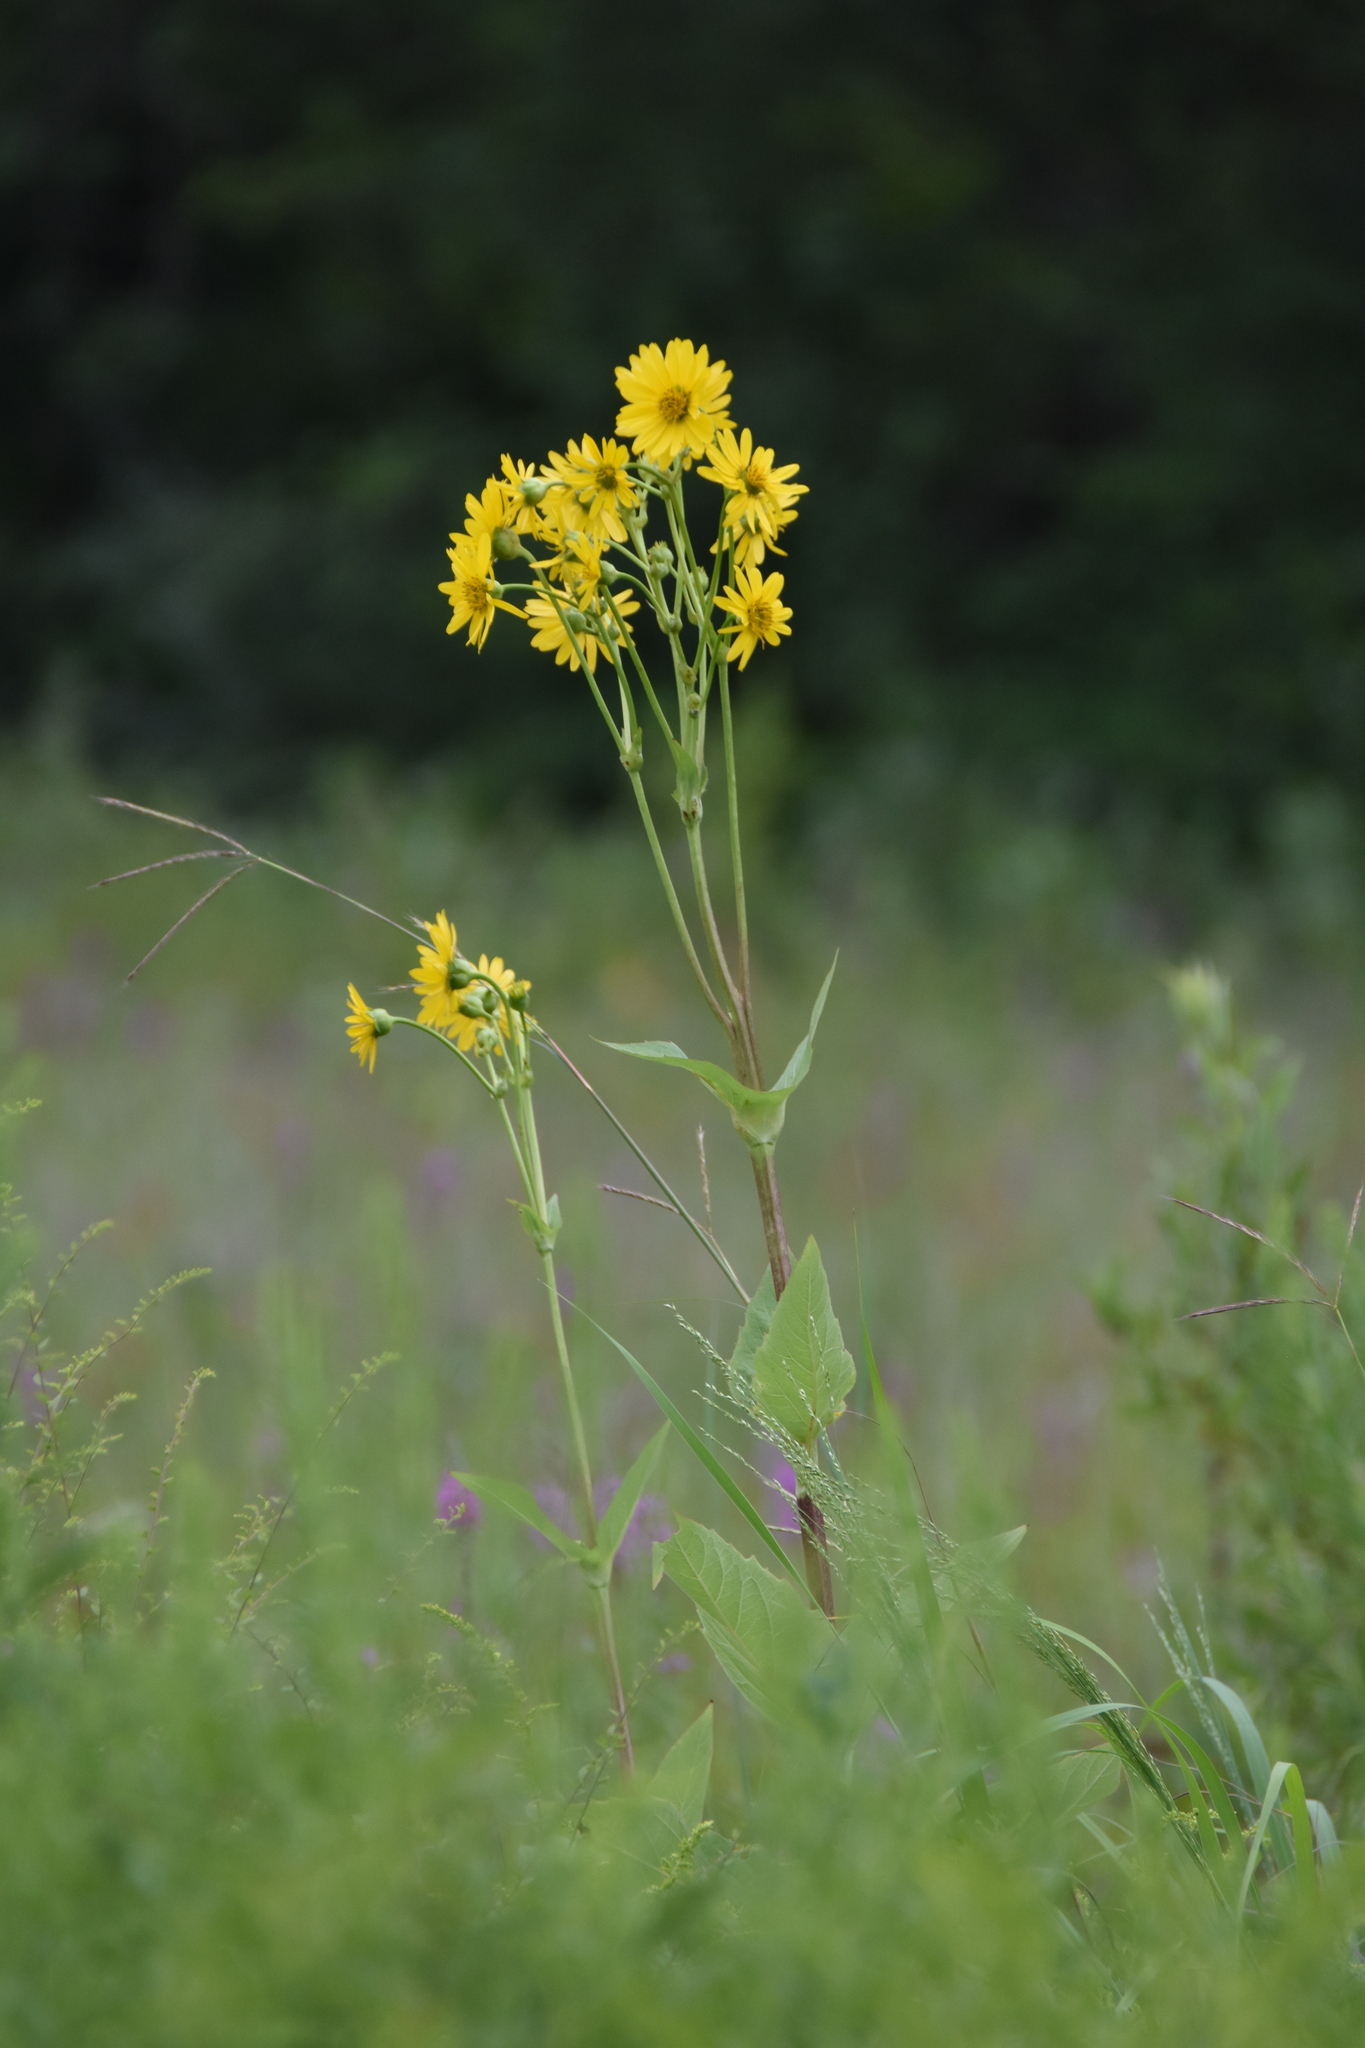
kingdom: Plantae
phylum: Tracheophyta
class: Magnoliopsida
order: Asterales
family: Asteraceae
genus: Silphium
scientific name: Silphium perfoliatum
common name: Cup-plant
